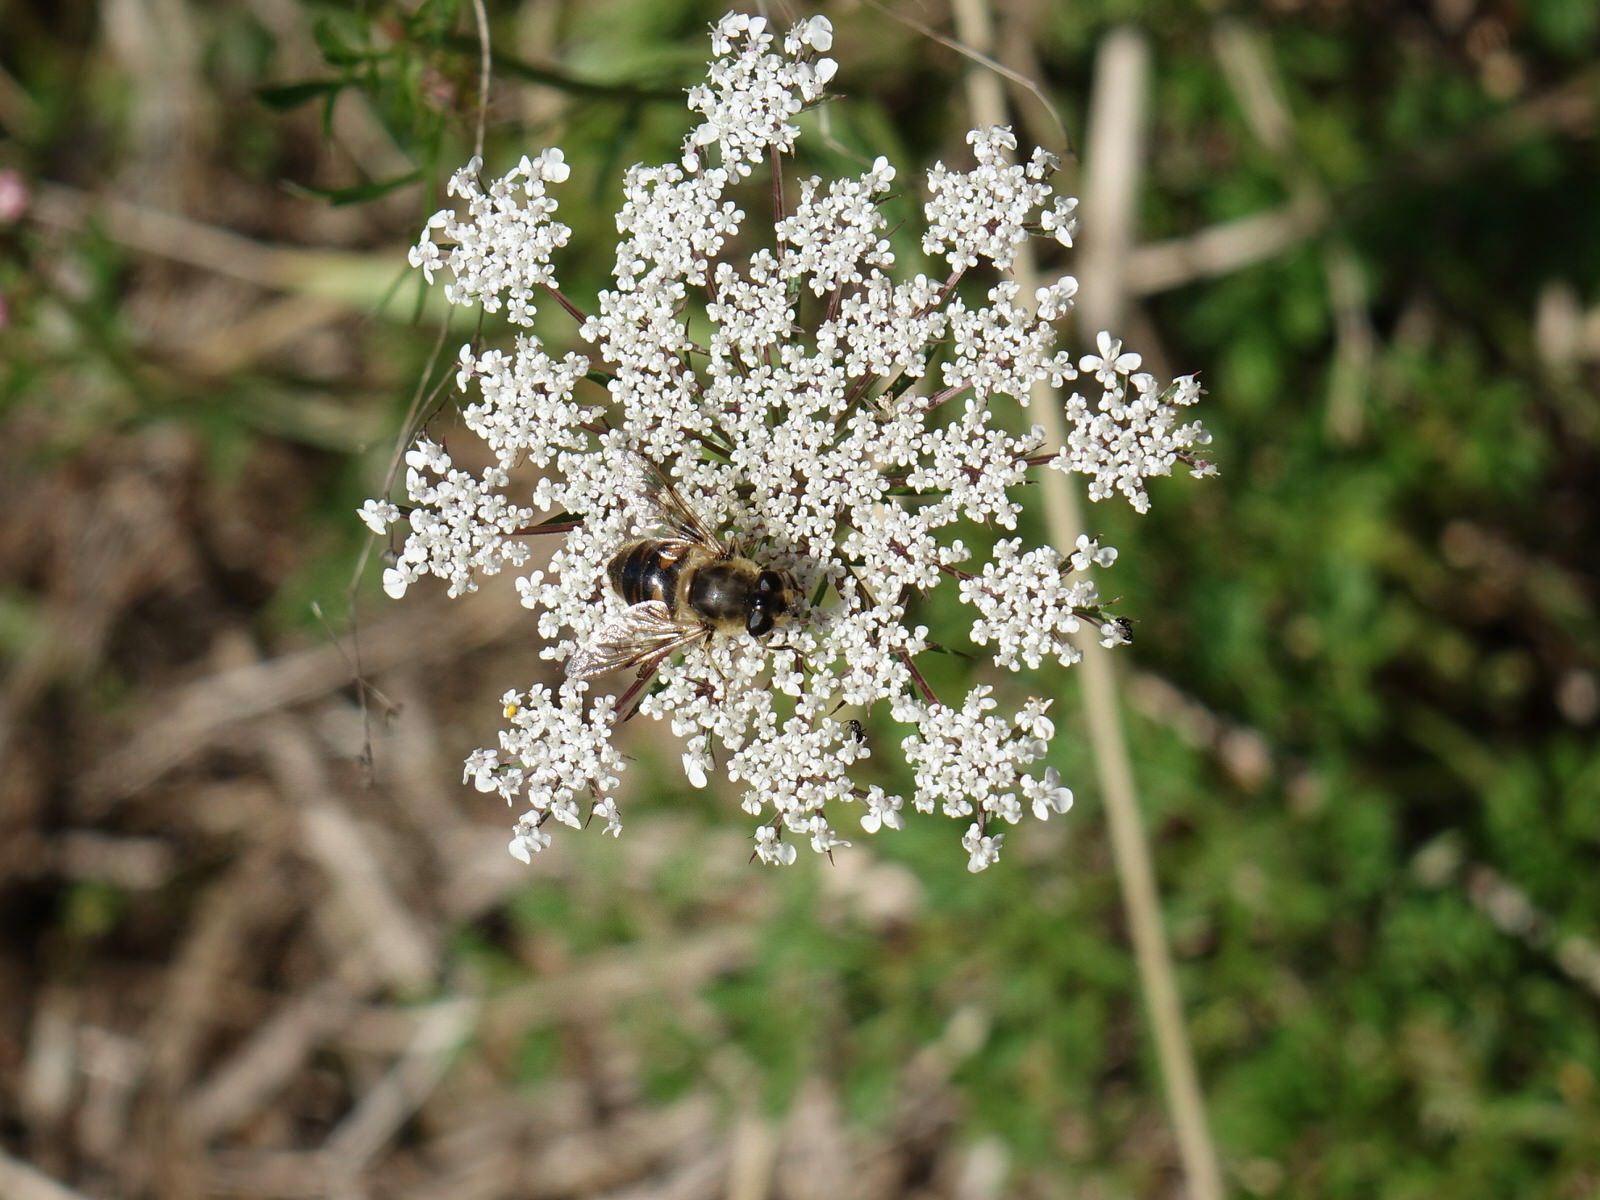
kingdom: Animalia
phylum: Arthropoda
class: Insecta
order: Diptera
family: Syrphidae
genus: Eristalis
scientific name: Eristalis tenax
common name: Drone fly
